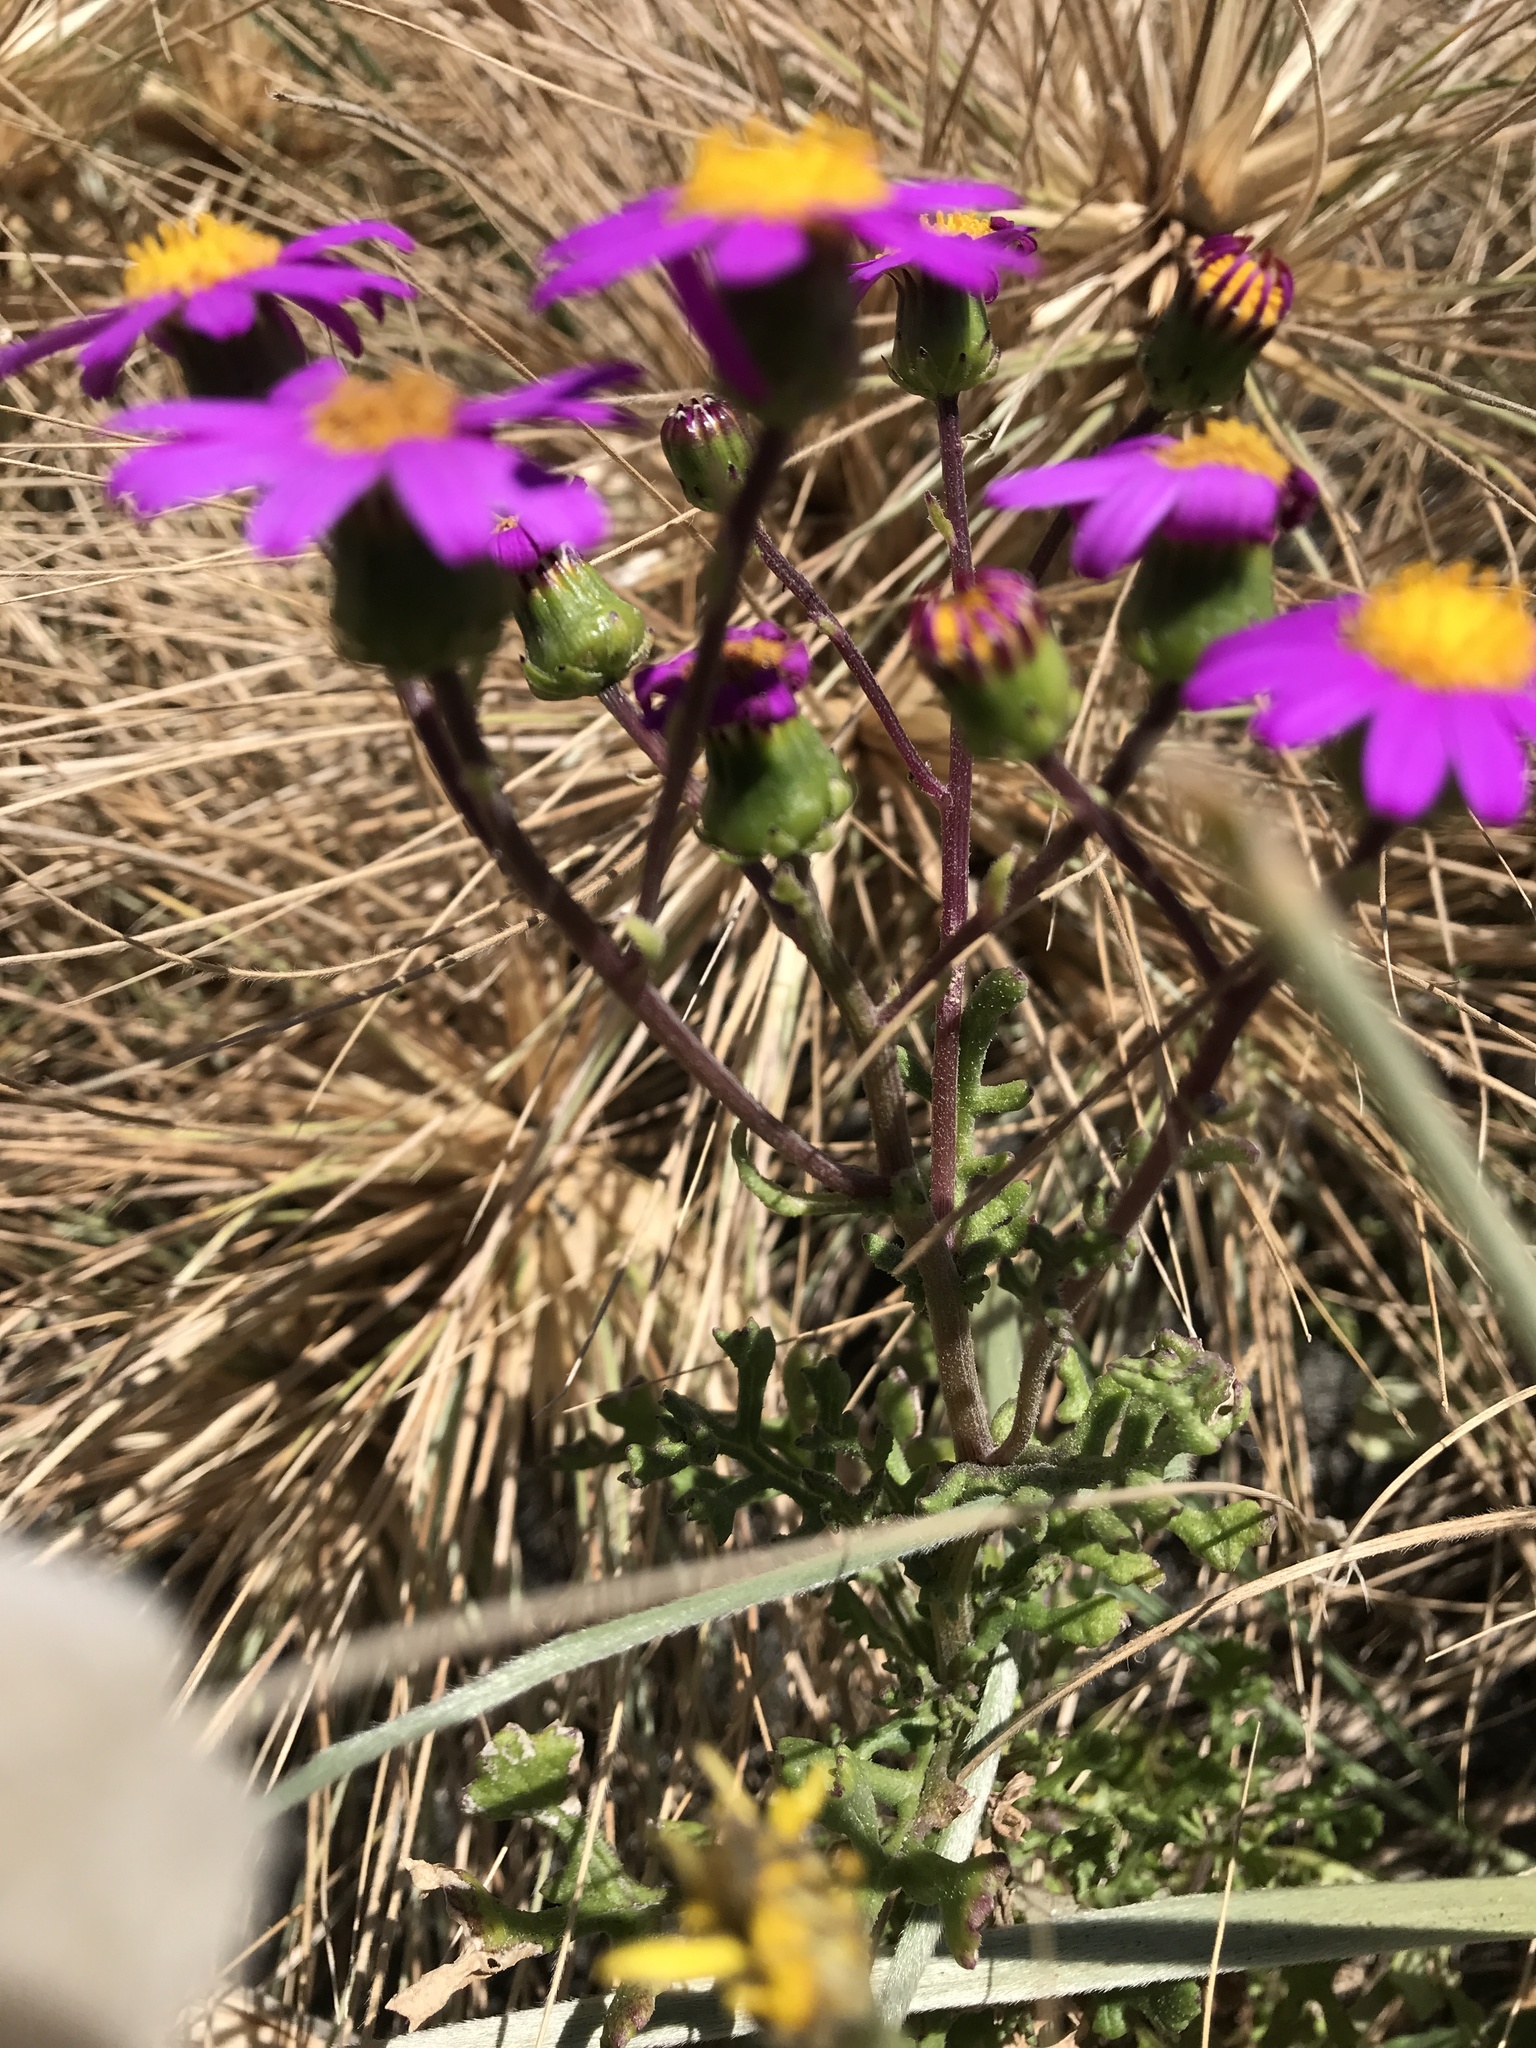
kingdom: Plantae
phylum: Tracheophyta
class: Magnoliopsida
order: Asterales
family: Asteraceae
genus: Senecio
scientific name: Senecio elegans
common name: Purple groundsel
